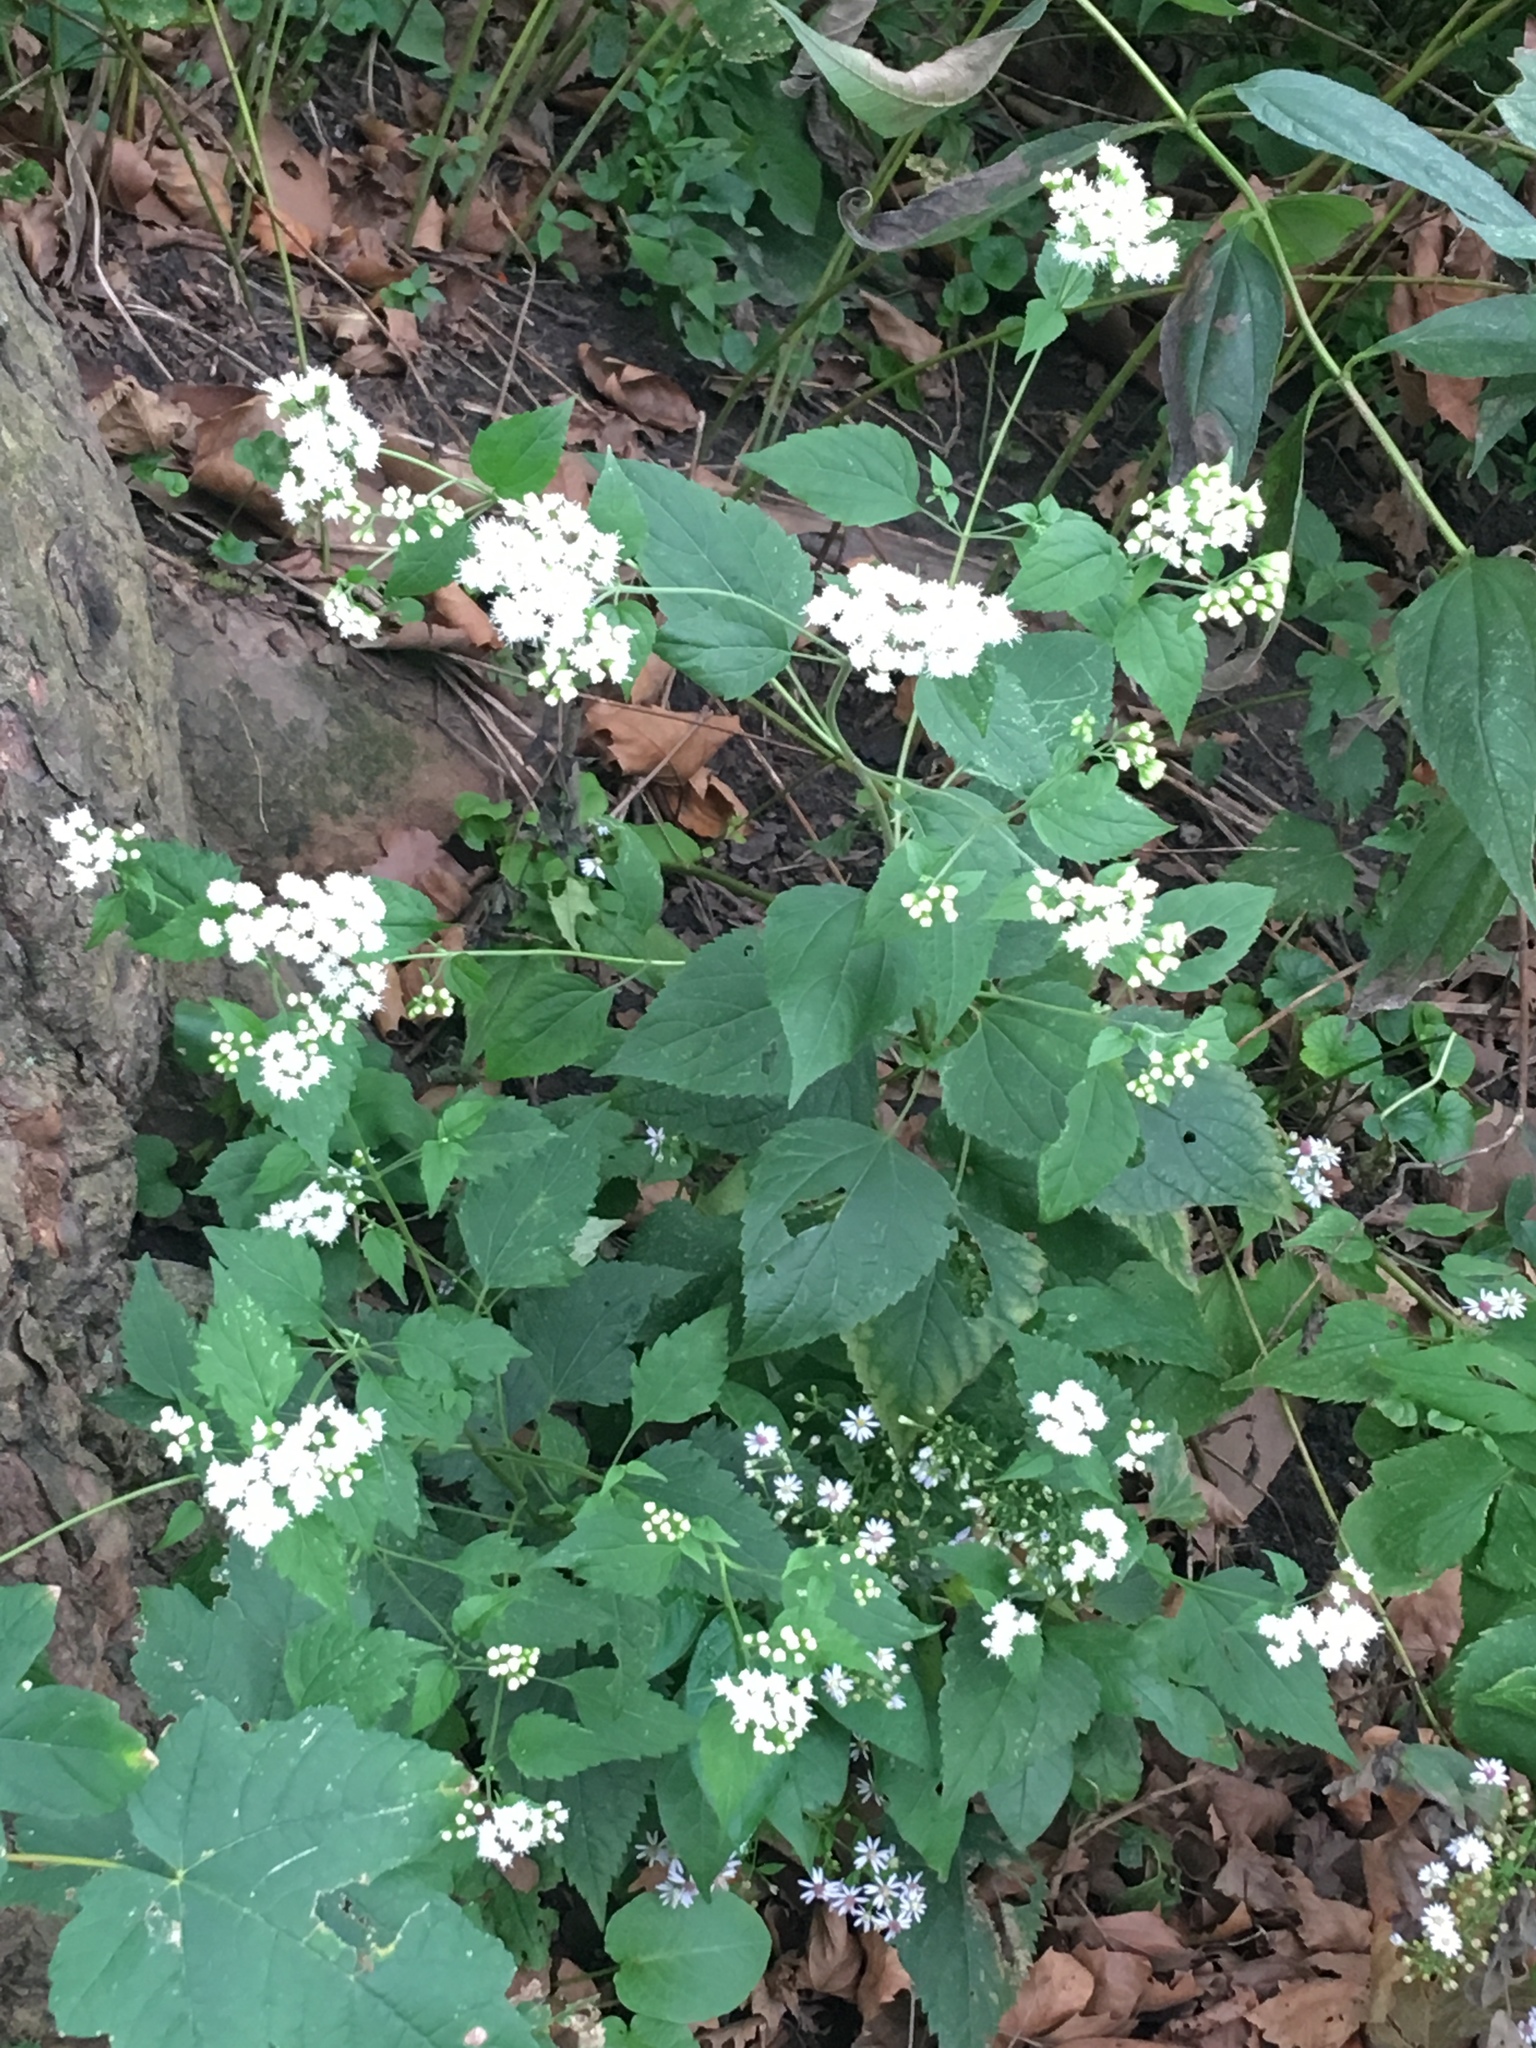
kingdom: Plantae
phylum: Tracheophyta
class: Magnoliopsida
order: Asterales
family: Asteraceae
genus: Ageratina
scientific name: Ageratina altissima
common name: White snakeroot
